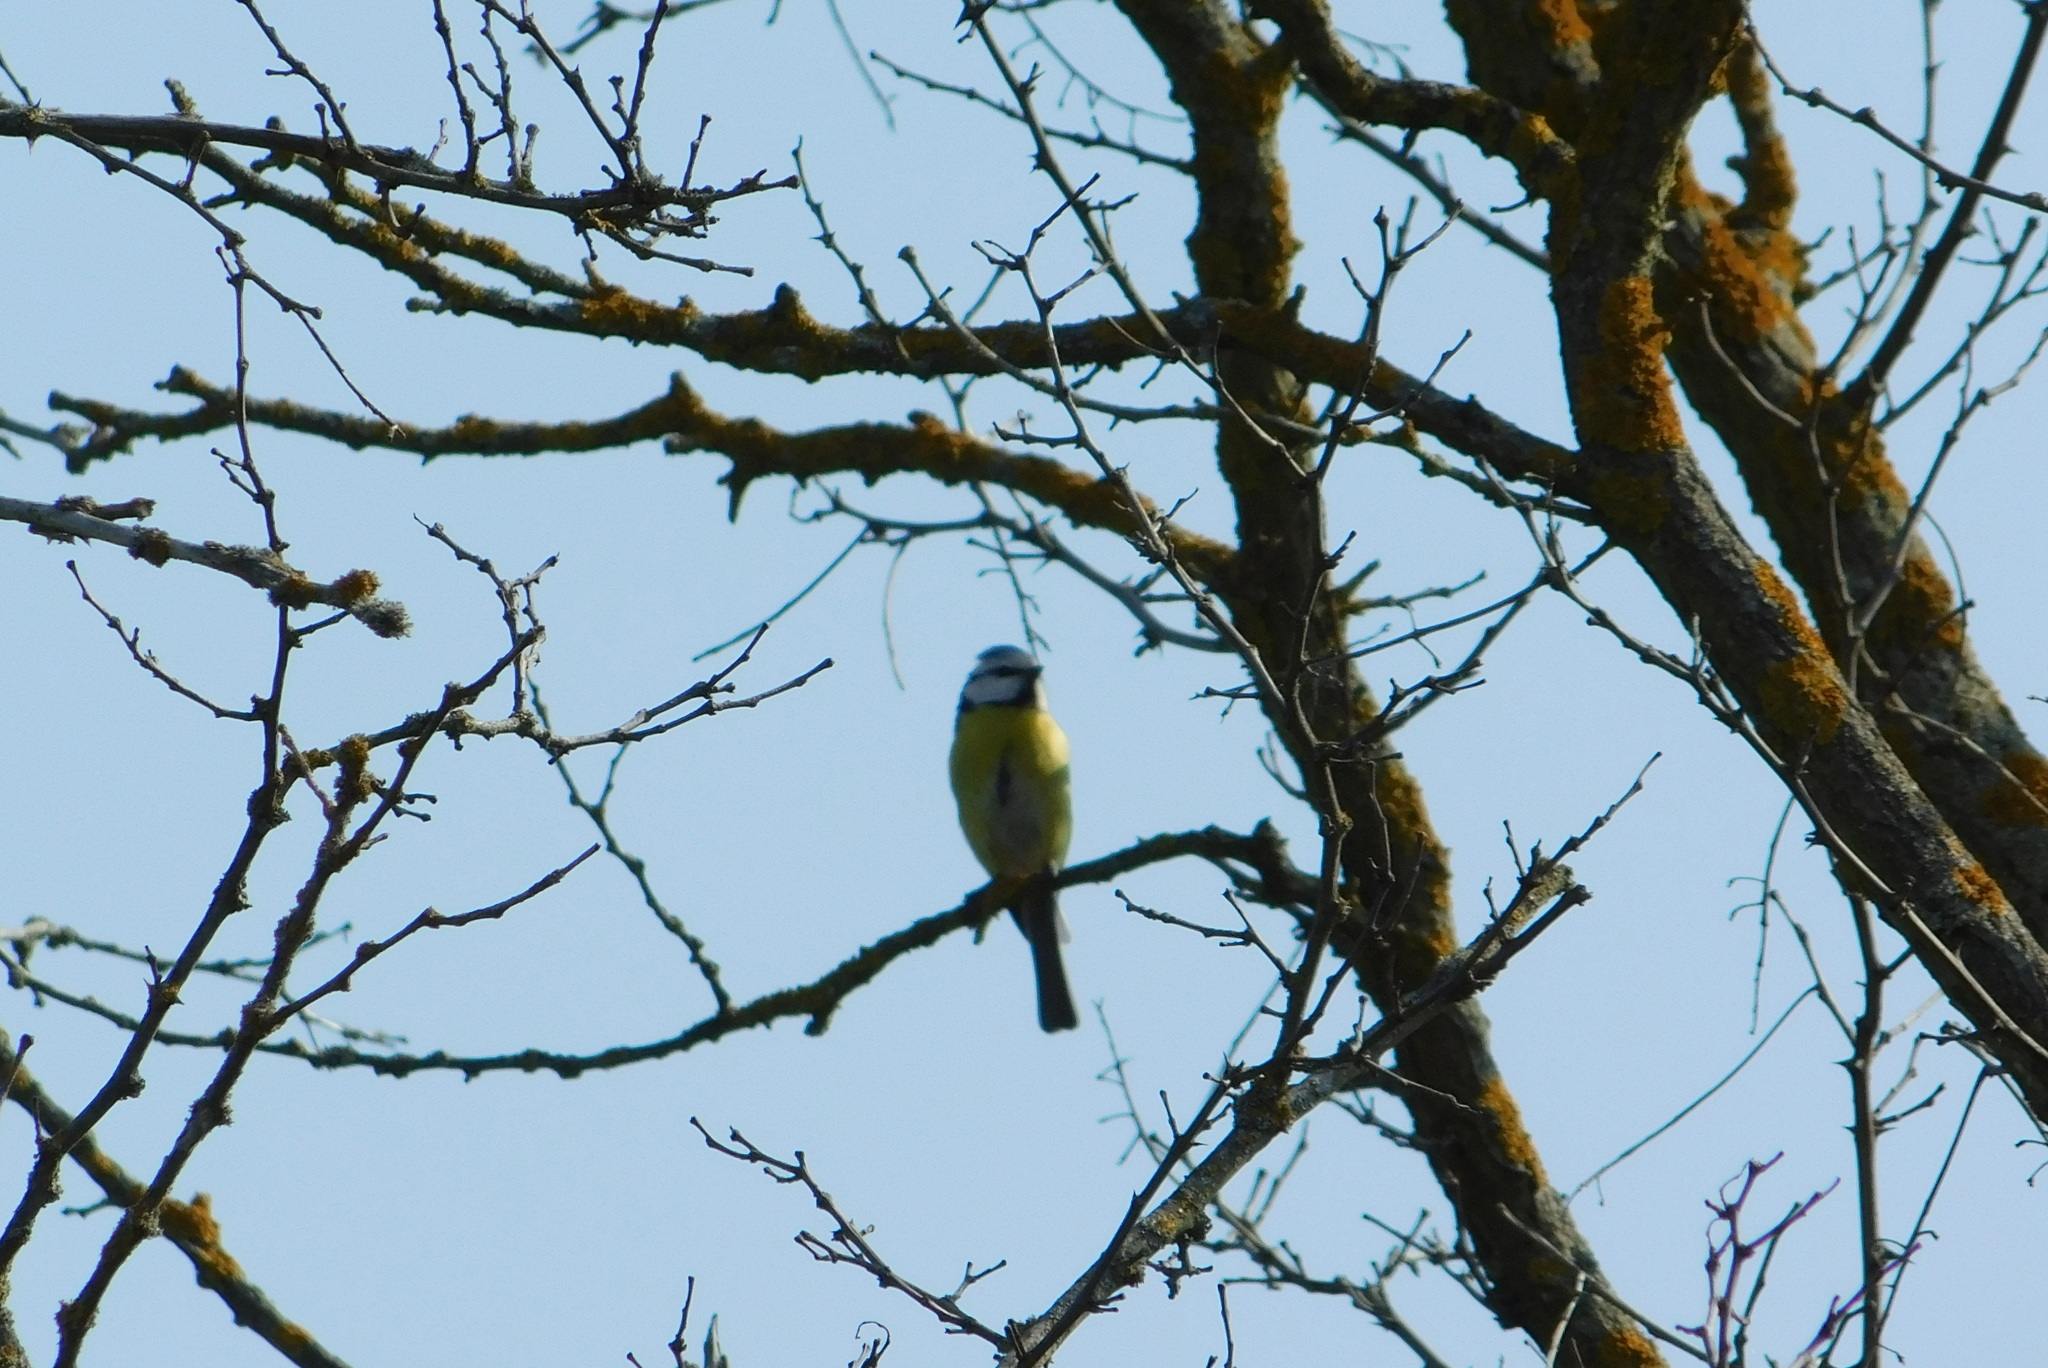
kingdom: Animalia
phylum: Chordata
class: Aves
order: Passeriformes
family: Paridae
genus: Cyanistes
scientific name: Cyanistes caeruleus
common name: Eurasian blue tit
